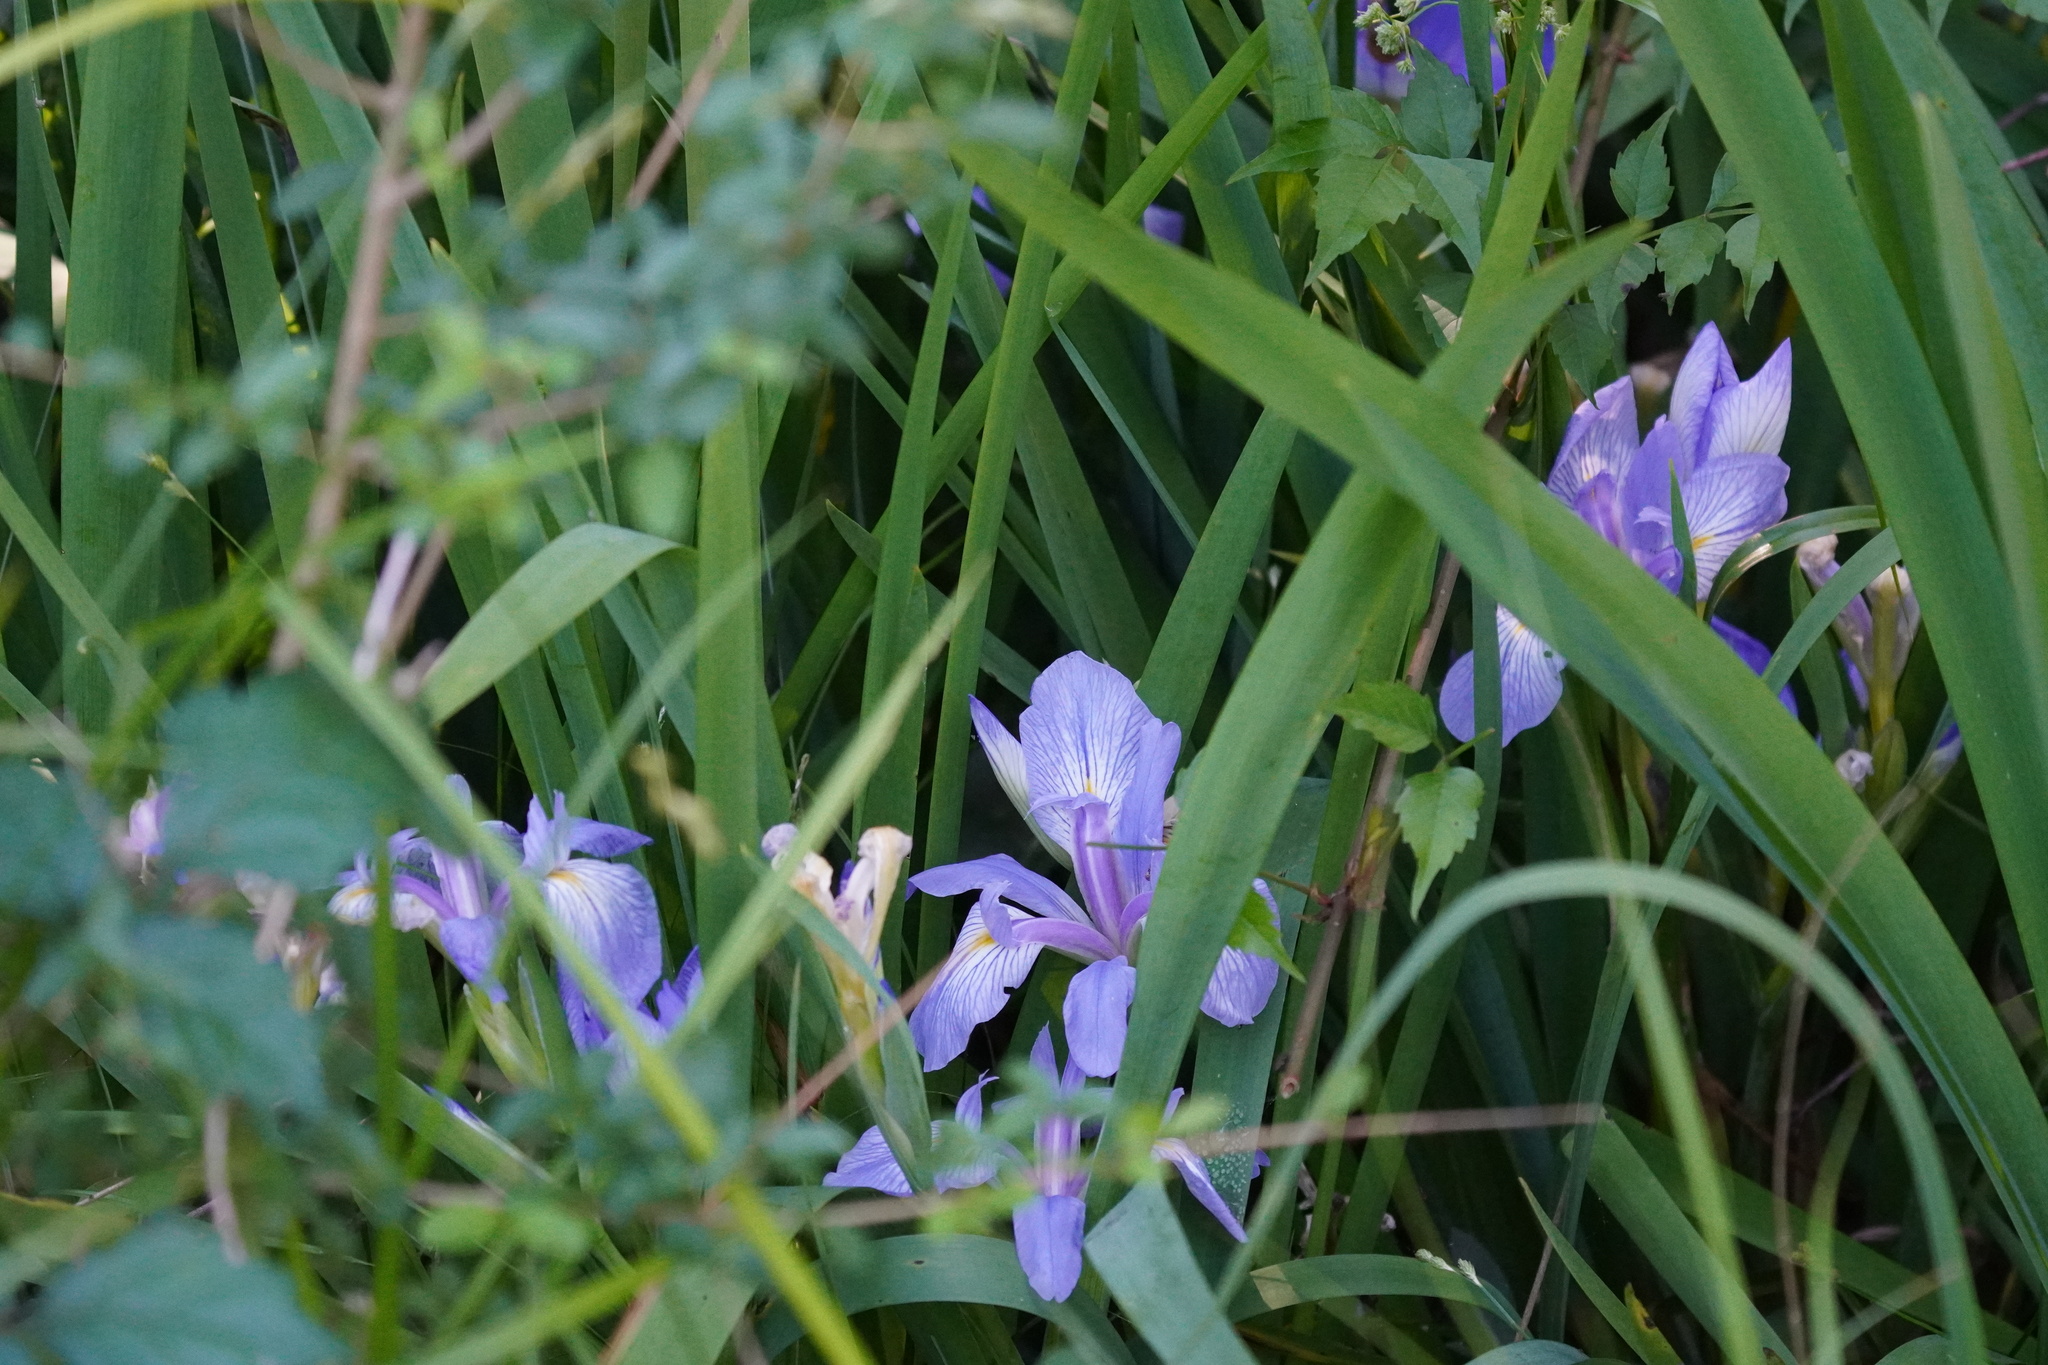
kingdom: Plantae
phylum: Tracheophyta
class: Liliopsida
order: Asparagales
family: Iridaceae
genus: Iris
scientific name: Iris virginica
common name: Southern blue flag
